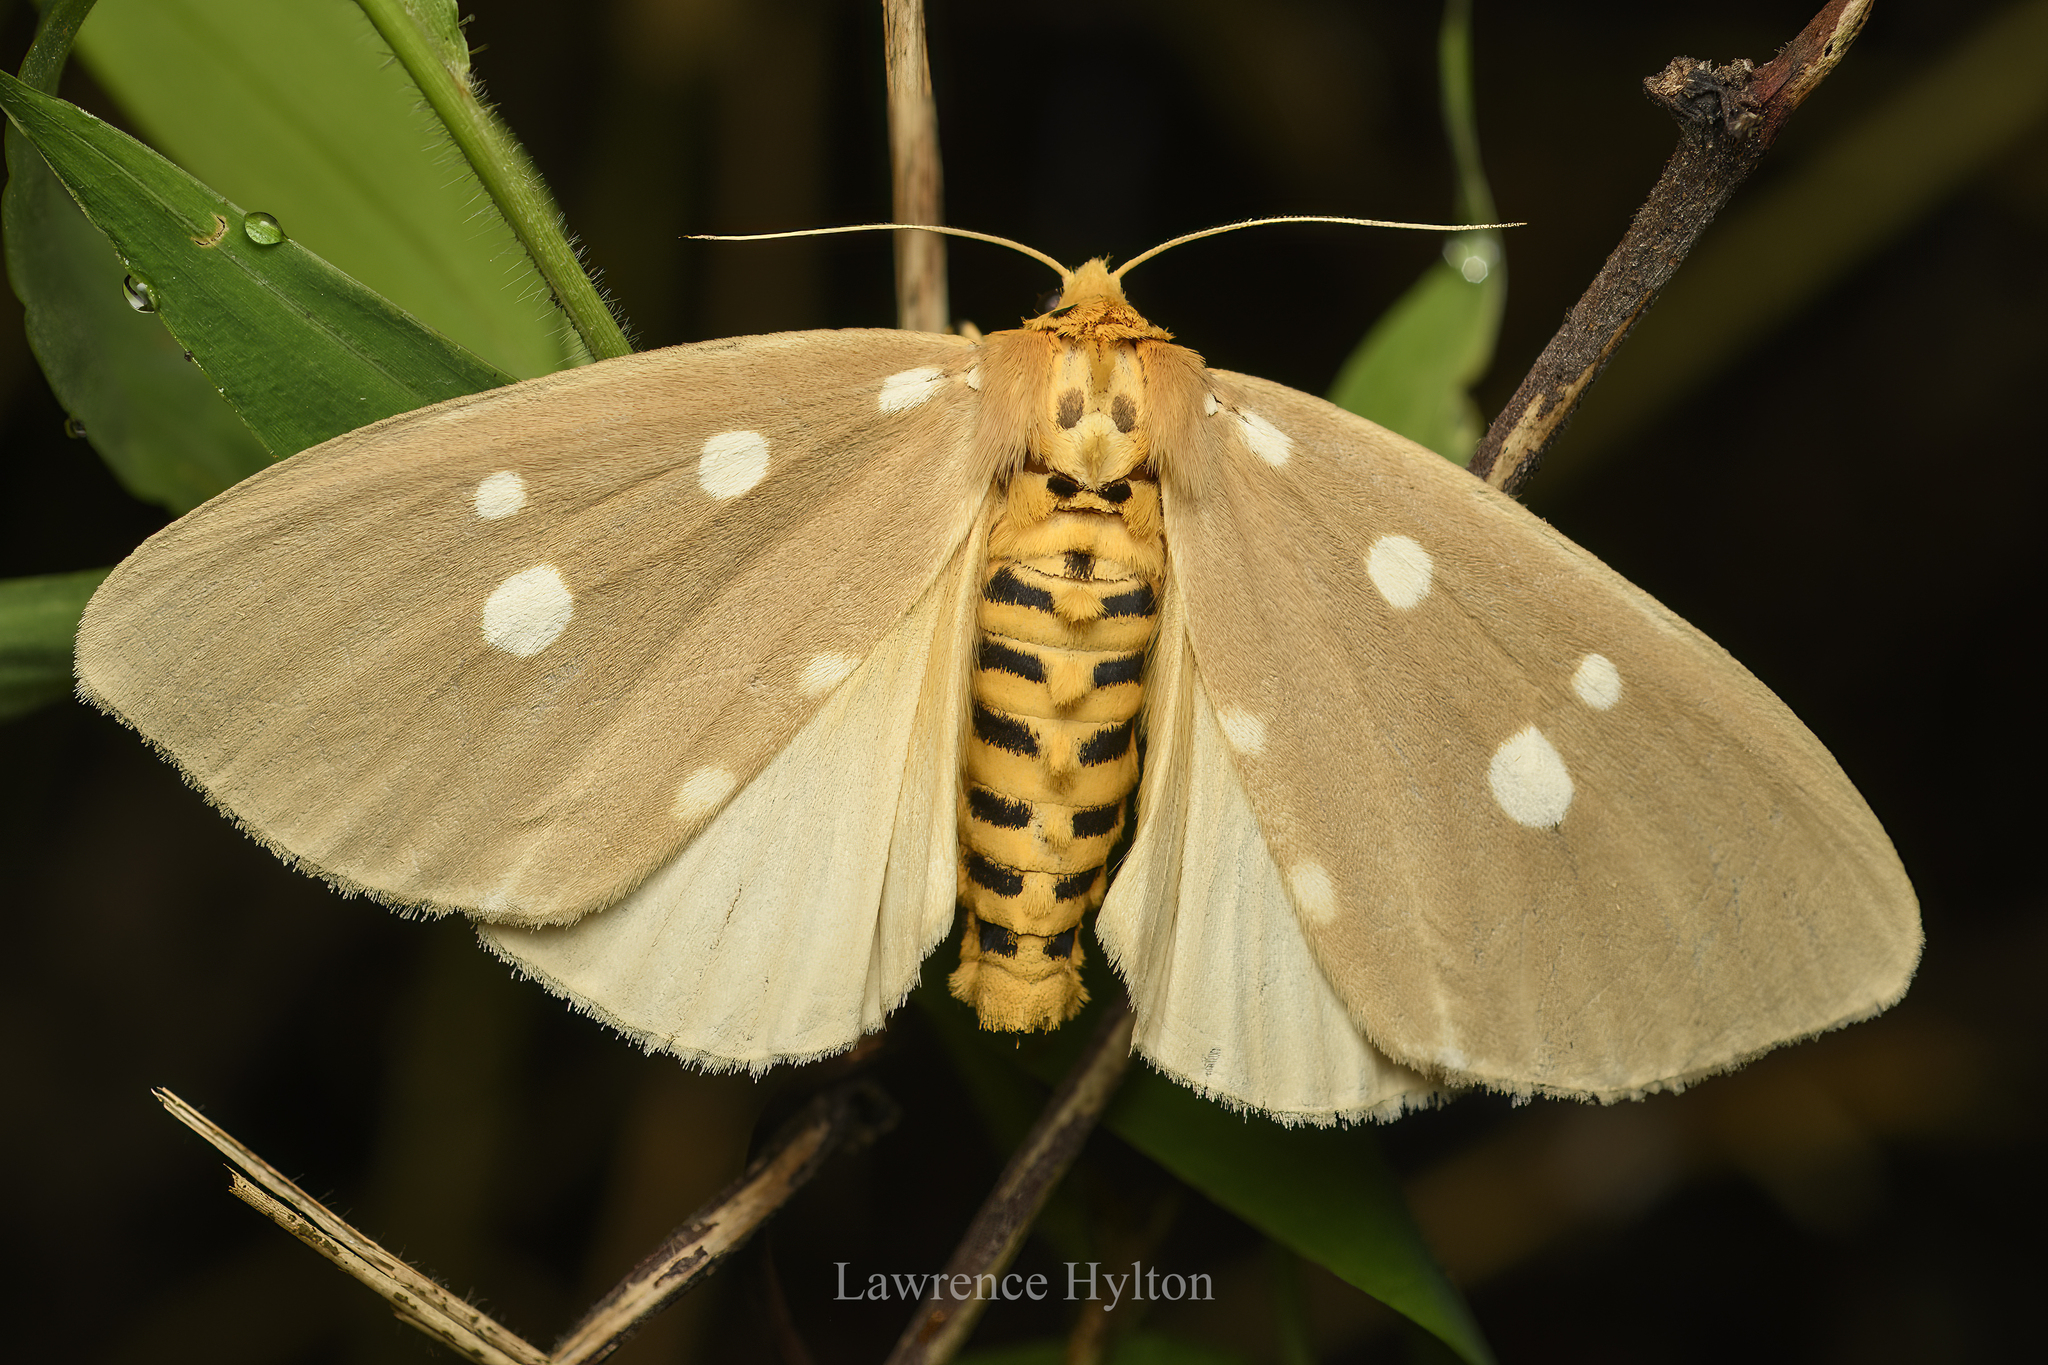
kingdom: Animalia
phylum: Arthropoda
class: Insecta
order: Lepidoptera
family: Erebidae
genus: Tinolius
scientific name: Tinolius hypsana
